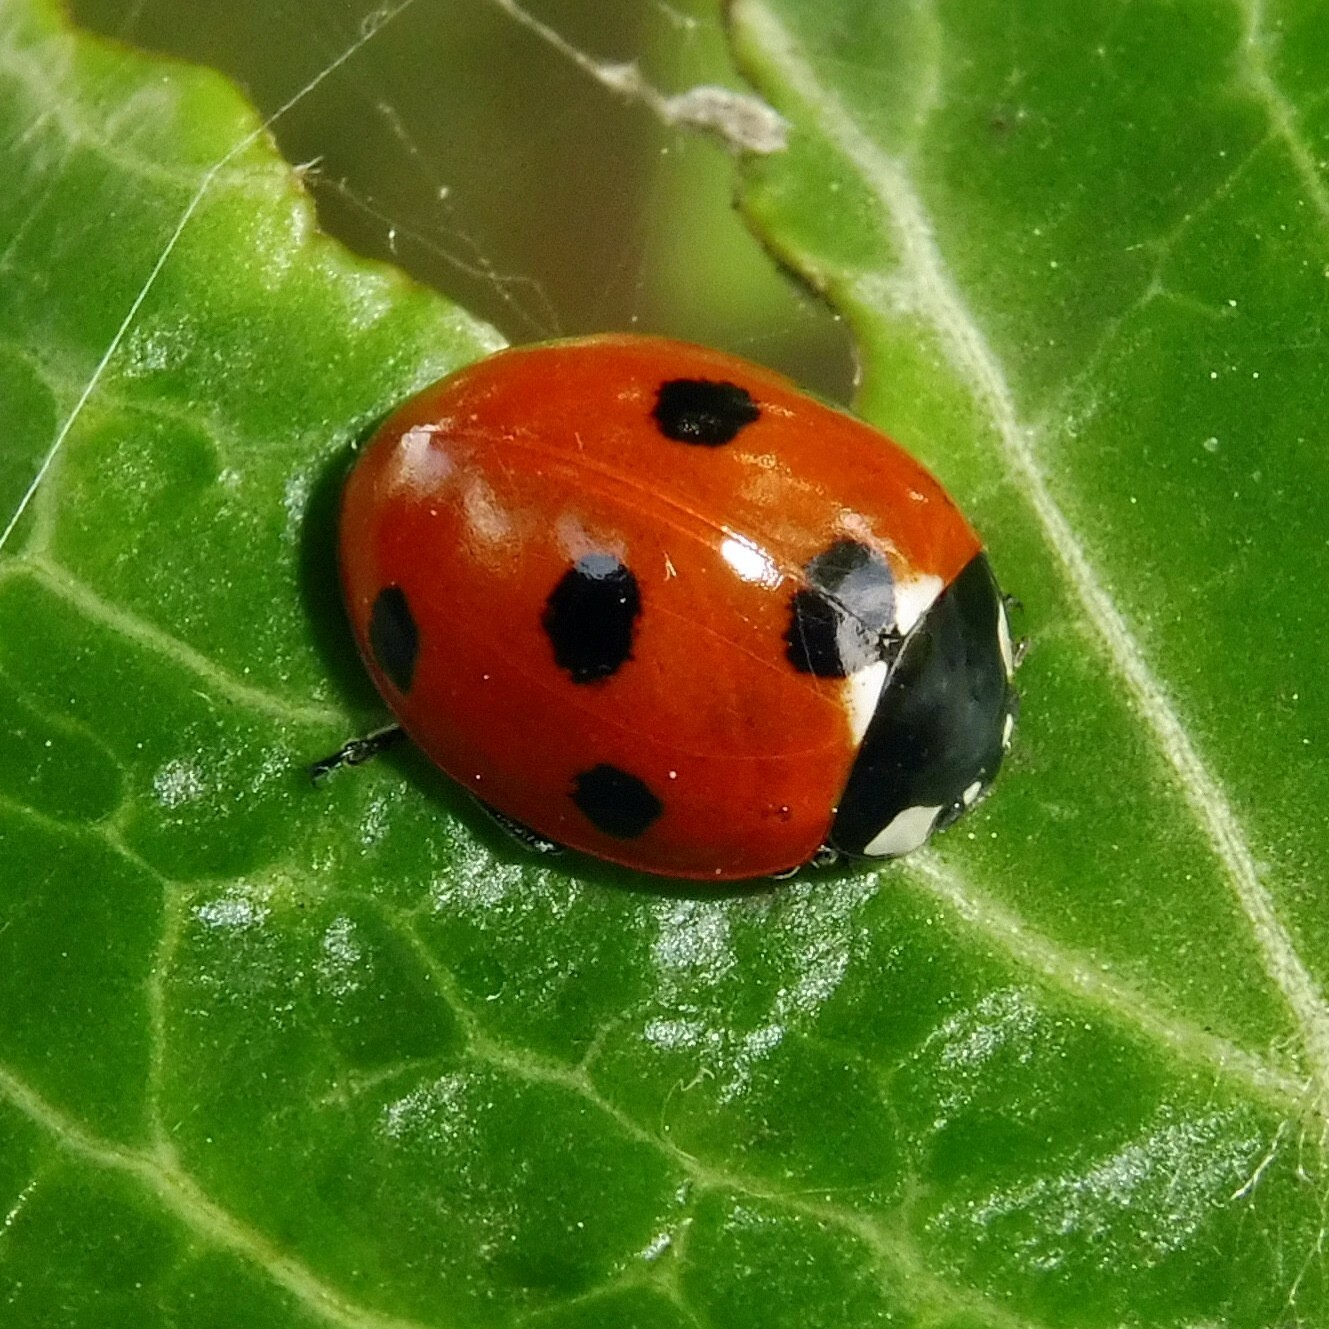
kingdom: Animalia
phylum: Arthropoda
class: Insecta
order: Coleoptera
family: Coccinellidae
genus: Coccinella
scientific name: Coccinella septempunctata
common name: Sevenspotted lady beetle
